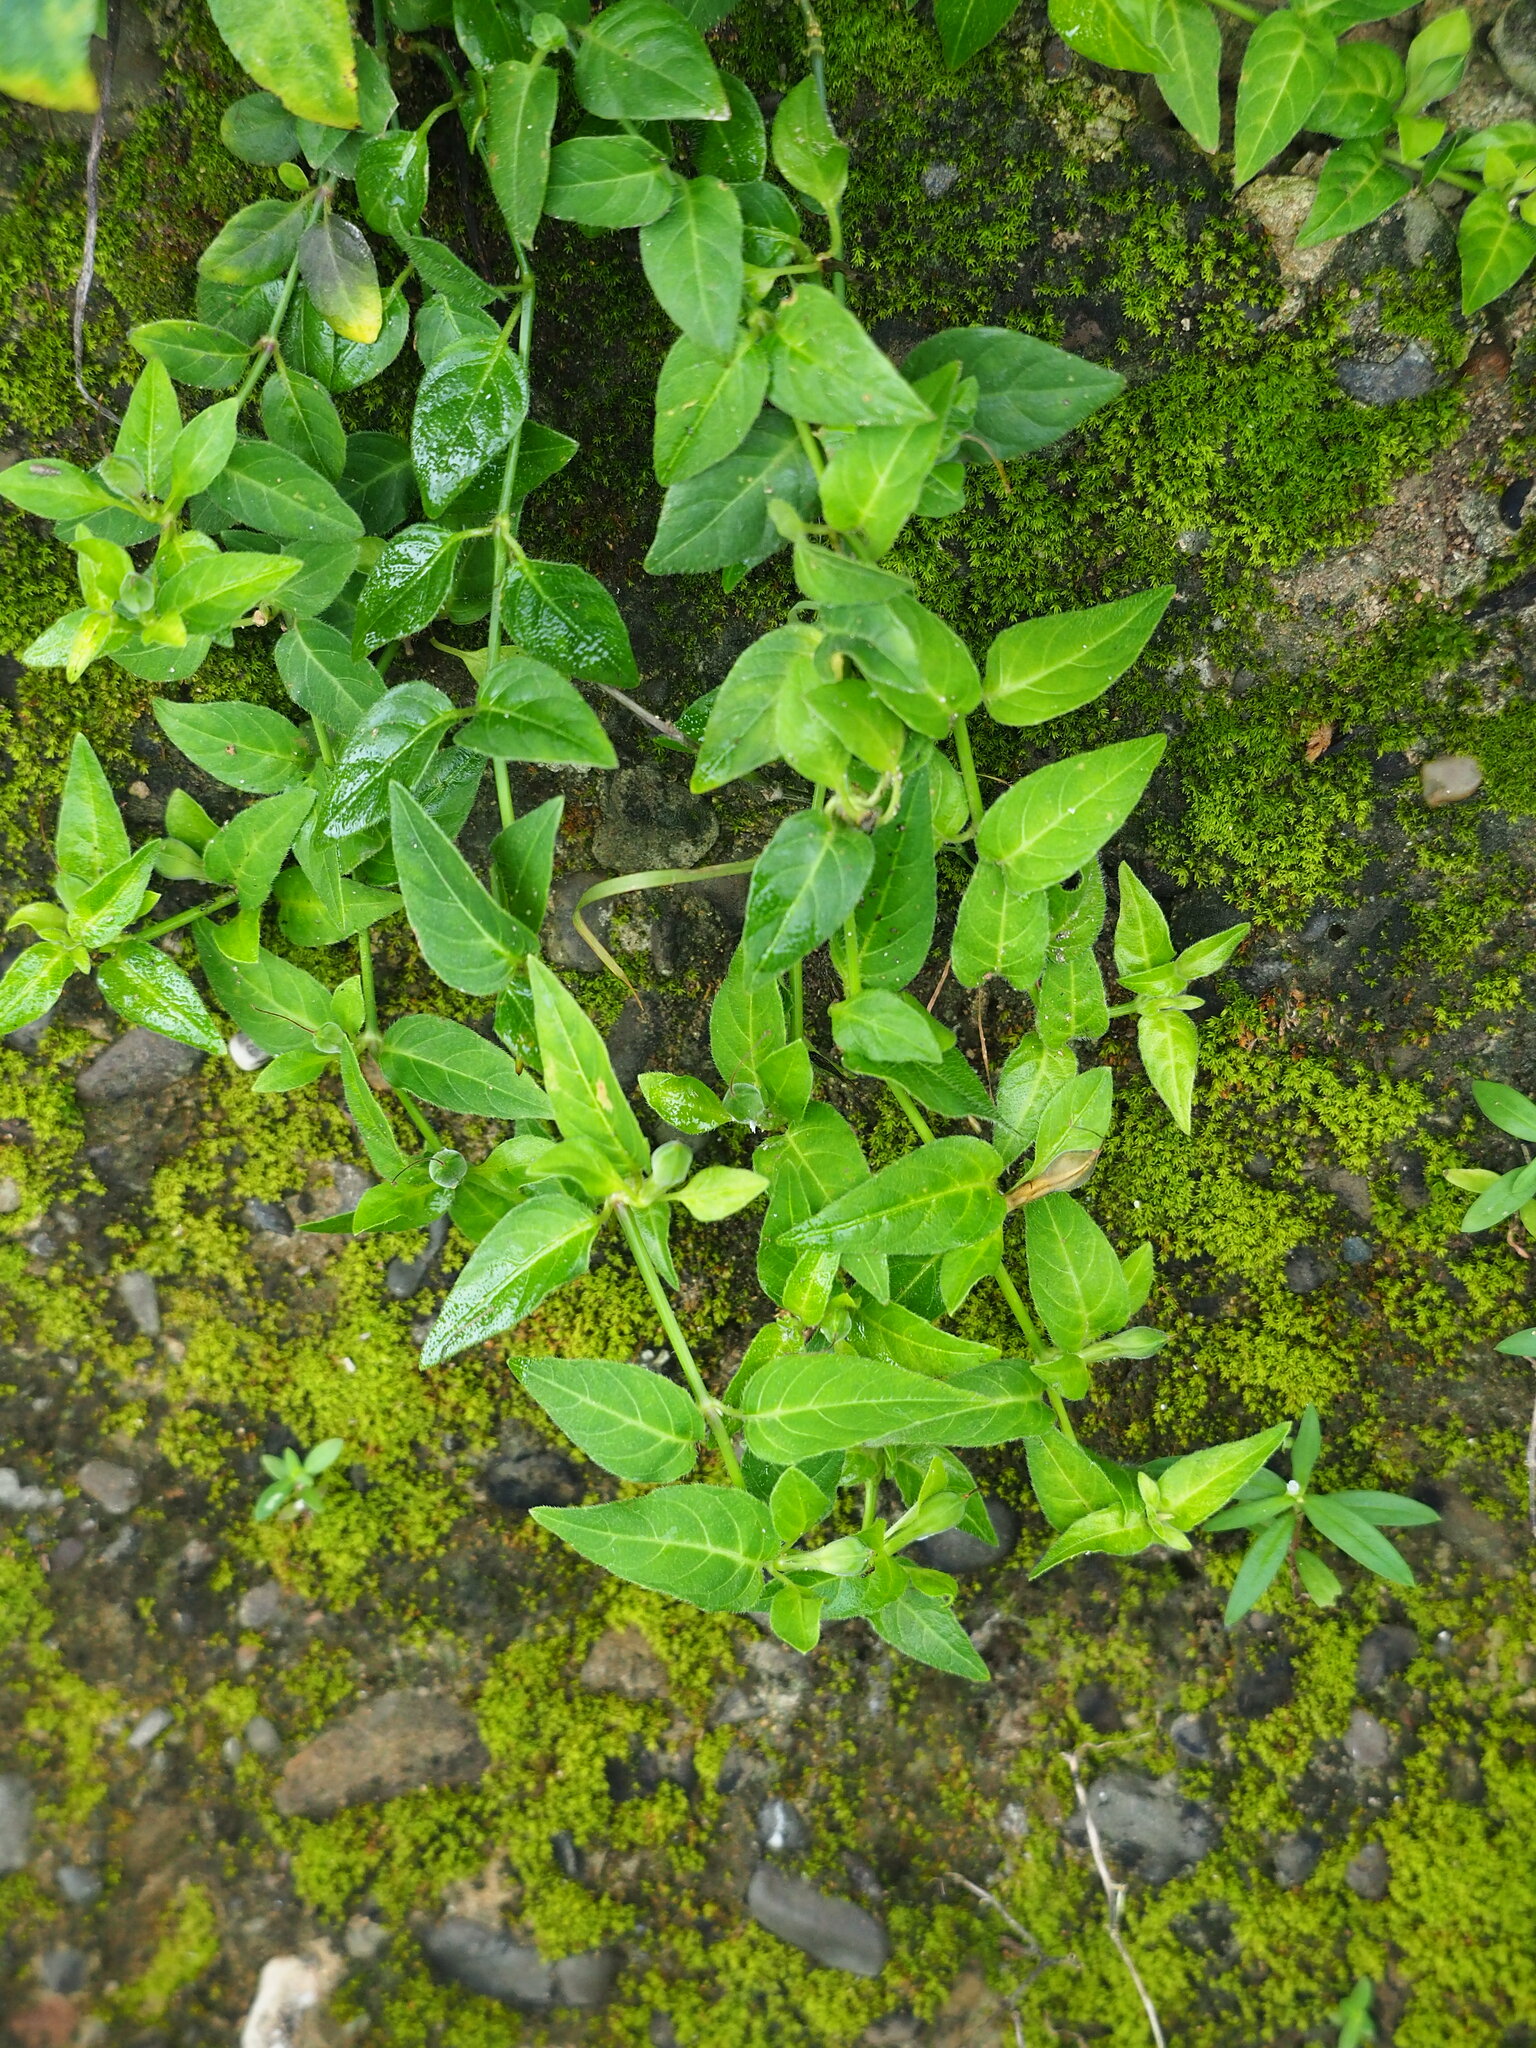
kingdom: Plantae
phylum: Tracheophyta
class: Magnoliopsida
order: Lamiales
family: Acanthaceae
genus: Ruellia
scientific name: Ruellia repens
